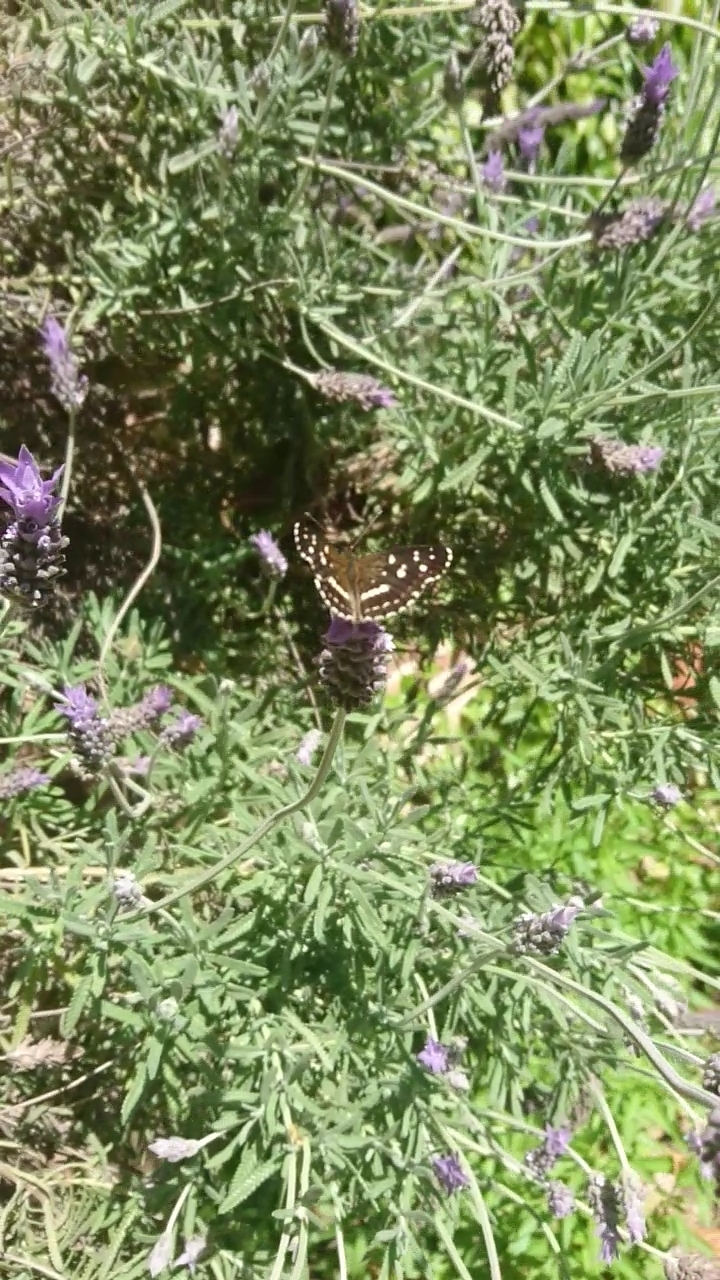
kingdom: Animalia
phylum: Arthropoda
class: Insecta
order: Lepidoptera
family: Nymphalidae
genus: Ortilia
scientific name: Ortilia ithra
